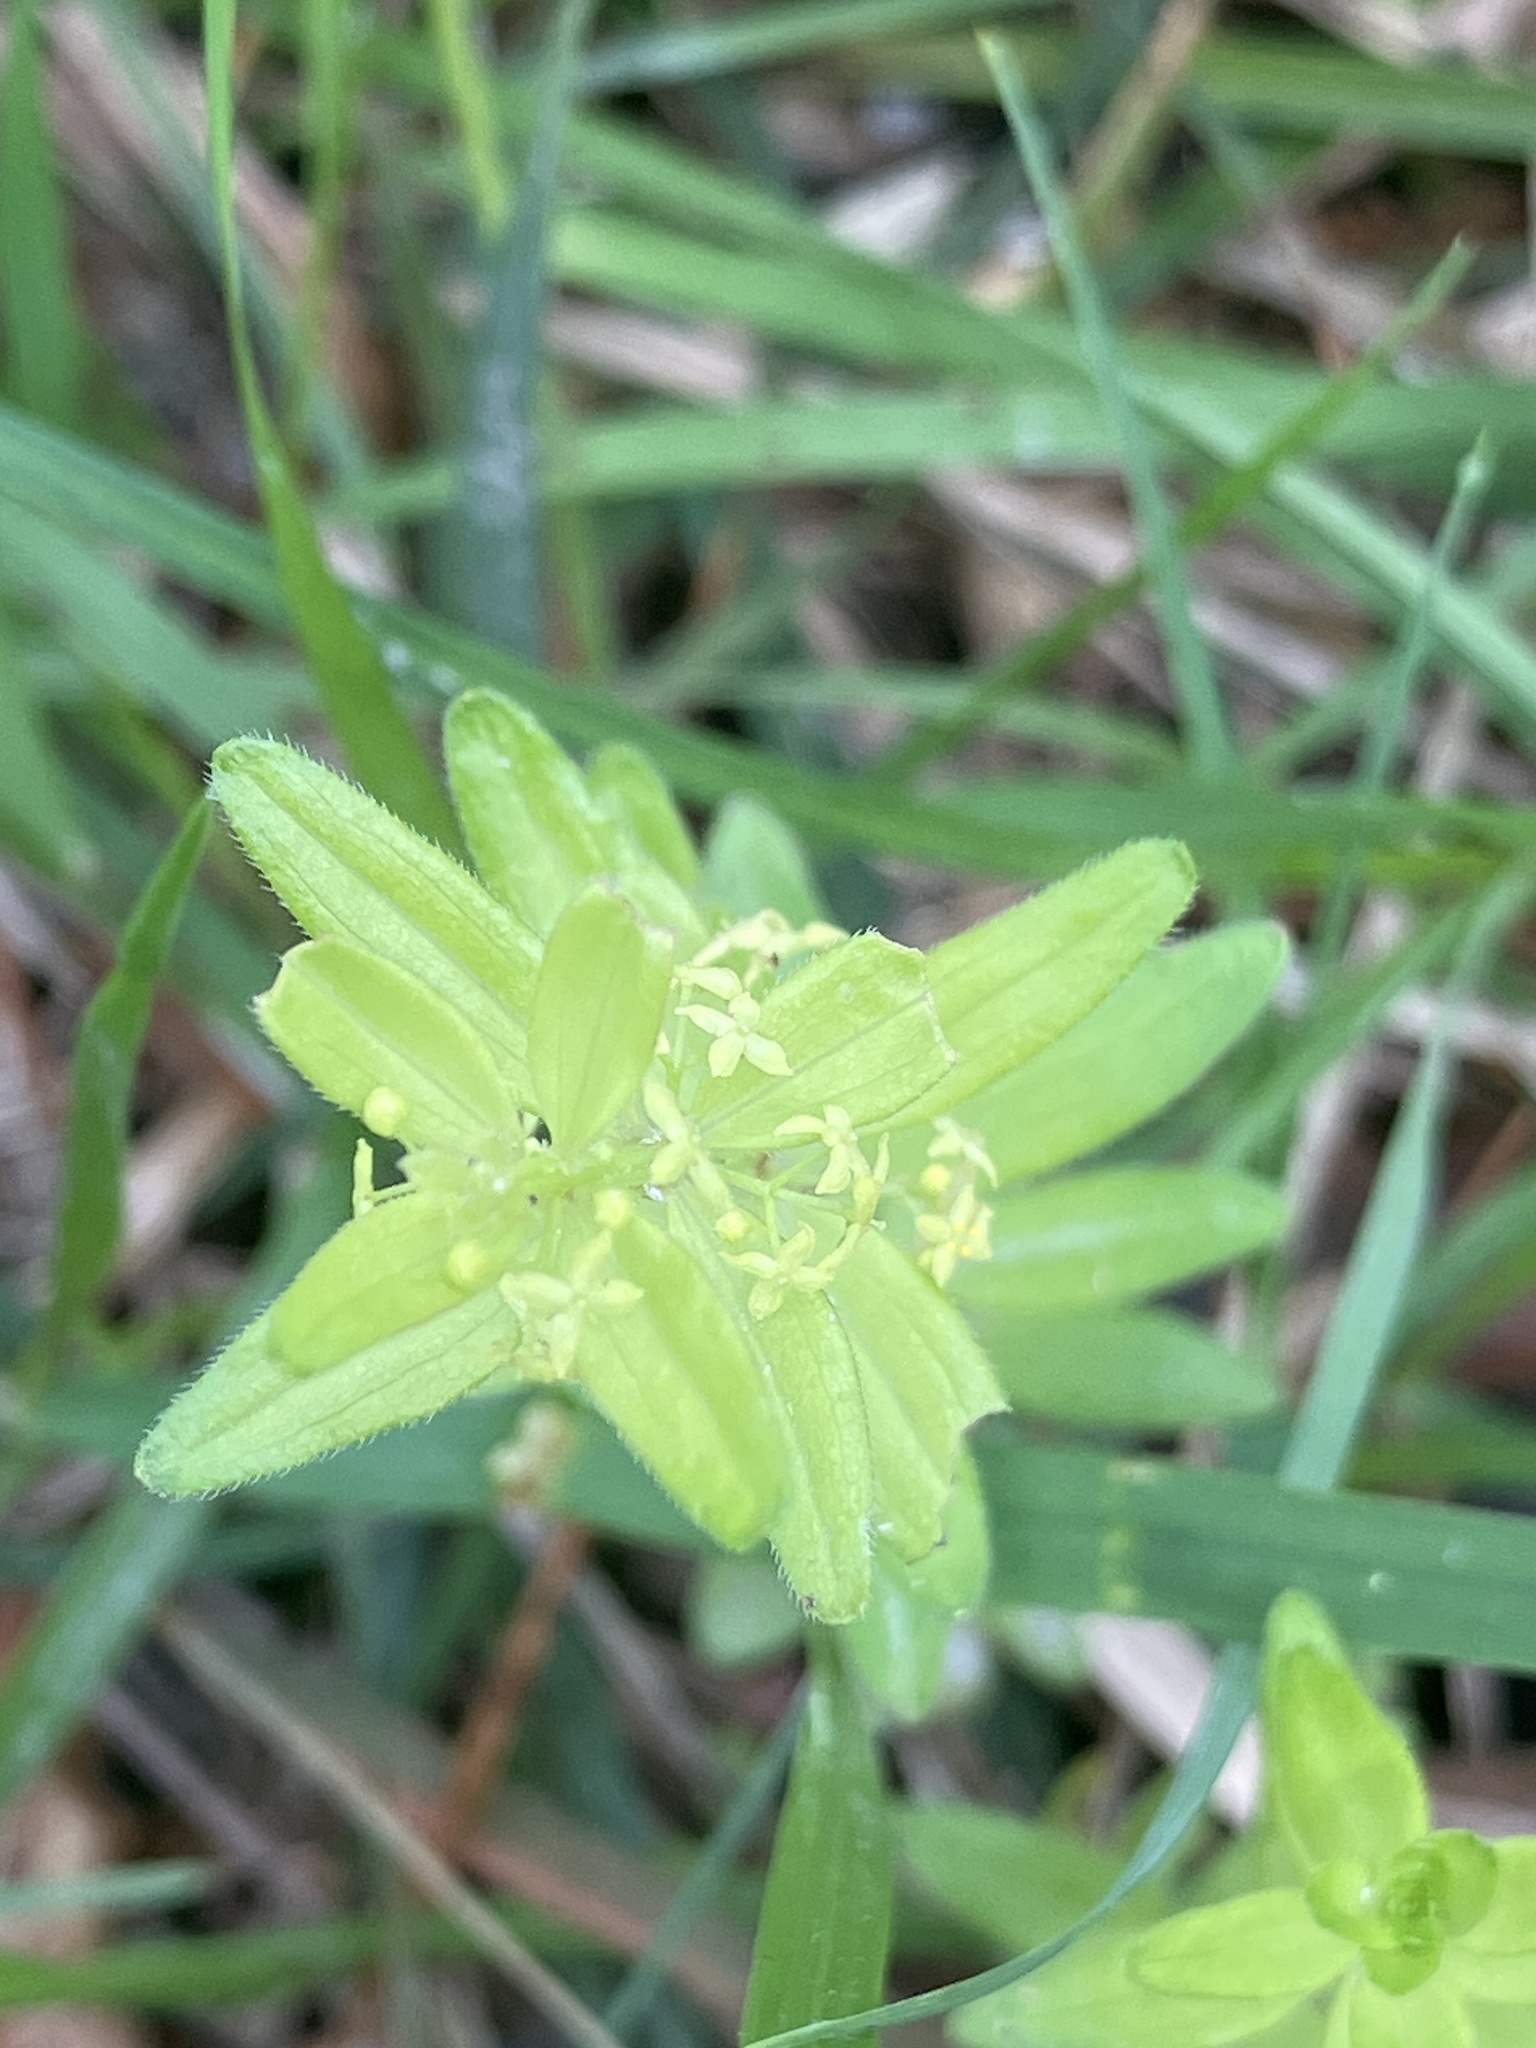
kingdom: Plantae
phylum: Tracheophyta
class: Magnoliopsida
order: Gentianales
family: Rubiaceae
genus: Cruciata
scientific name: Cruciata glabra
